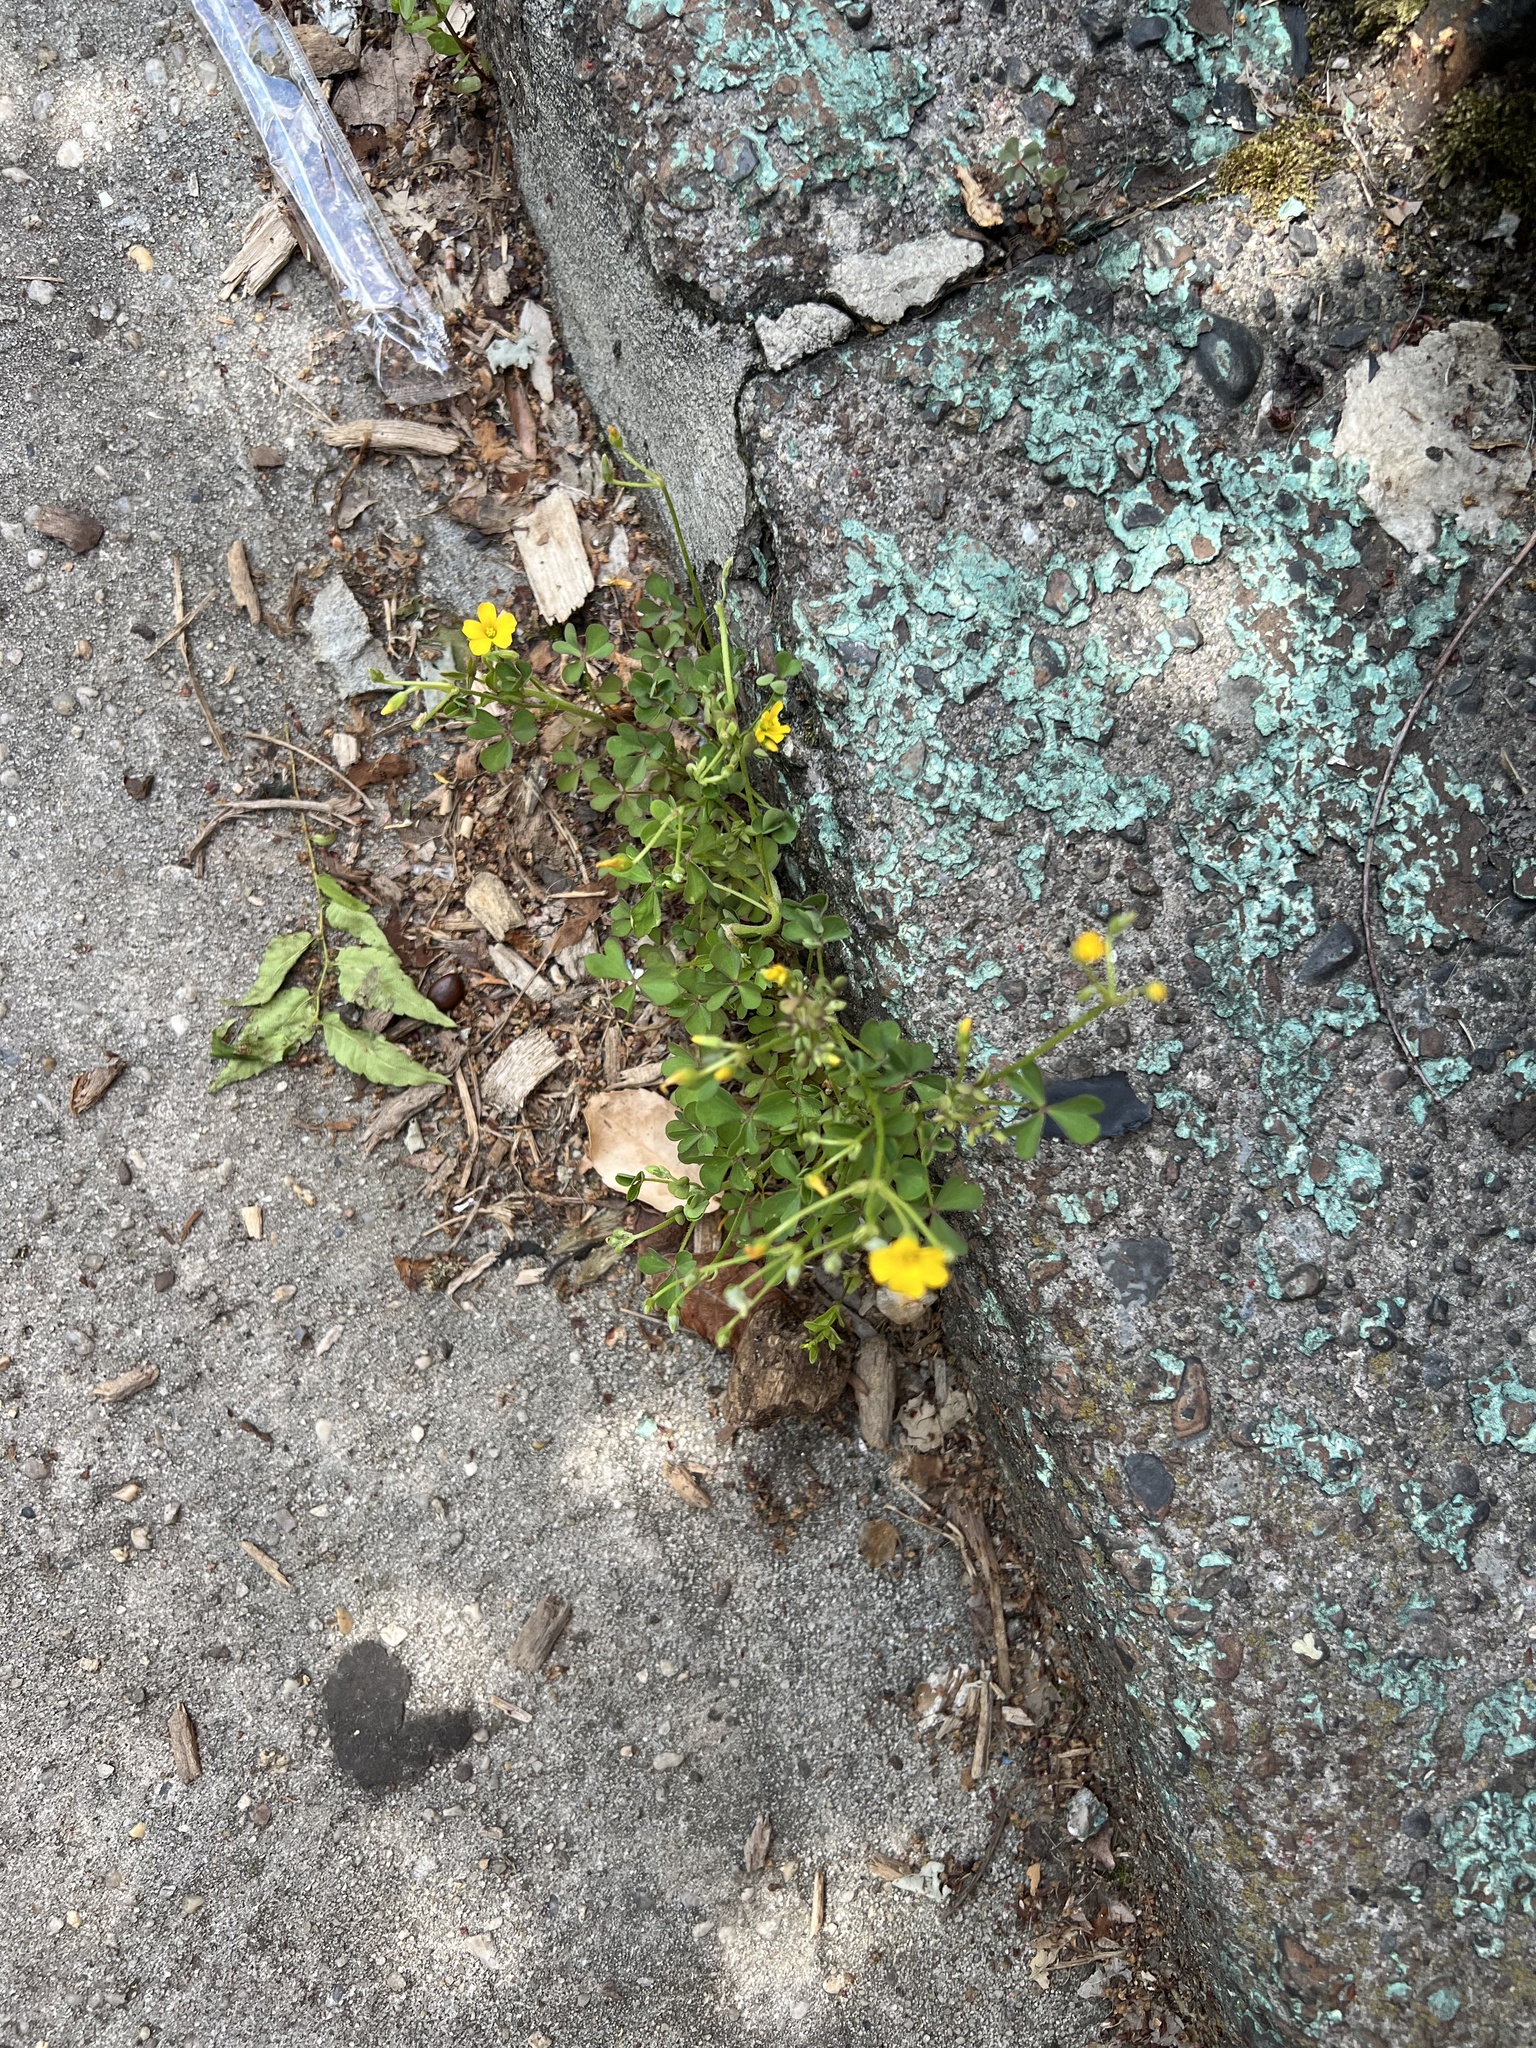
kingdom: Plantae
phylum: Tracheophyta
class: Magnoliopsida
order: Oxalidales
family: Oxalidaceae
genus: Oxalis
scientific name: Oxalis dillenii
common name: Sussex yellow-sorrel
